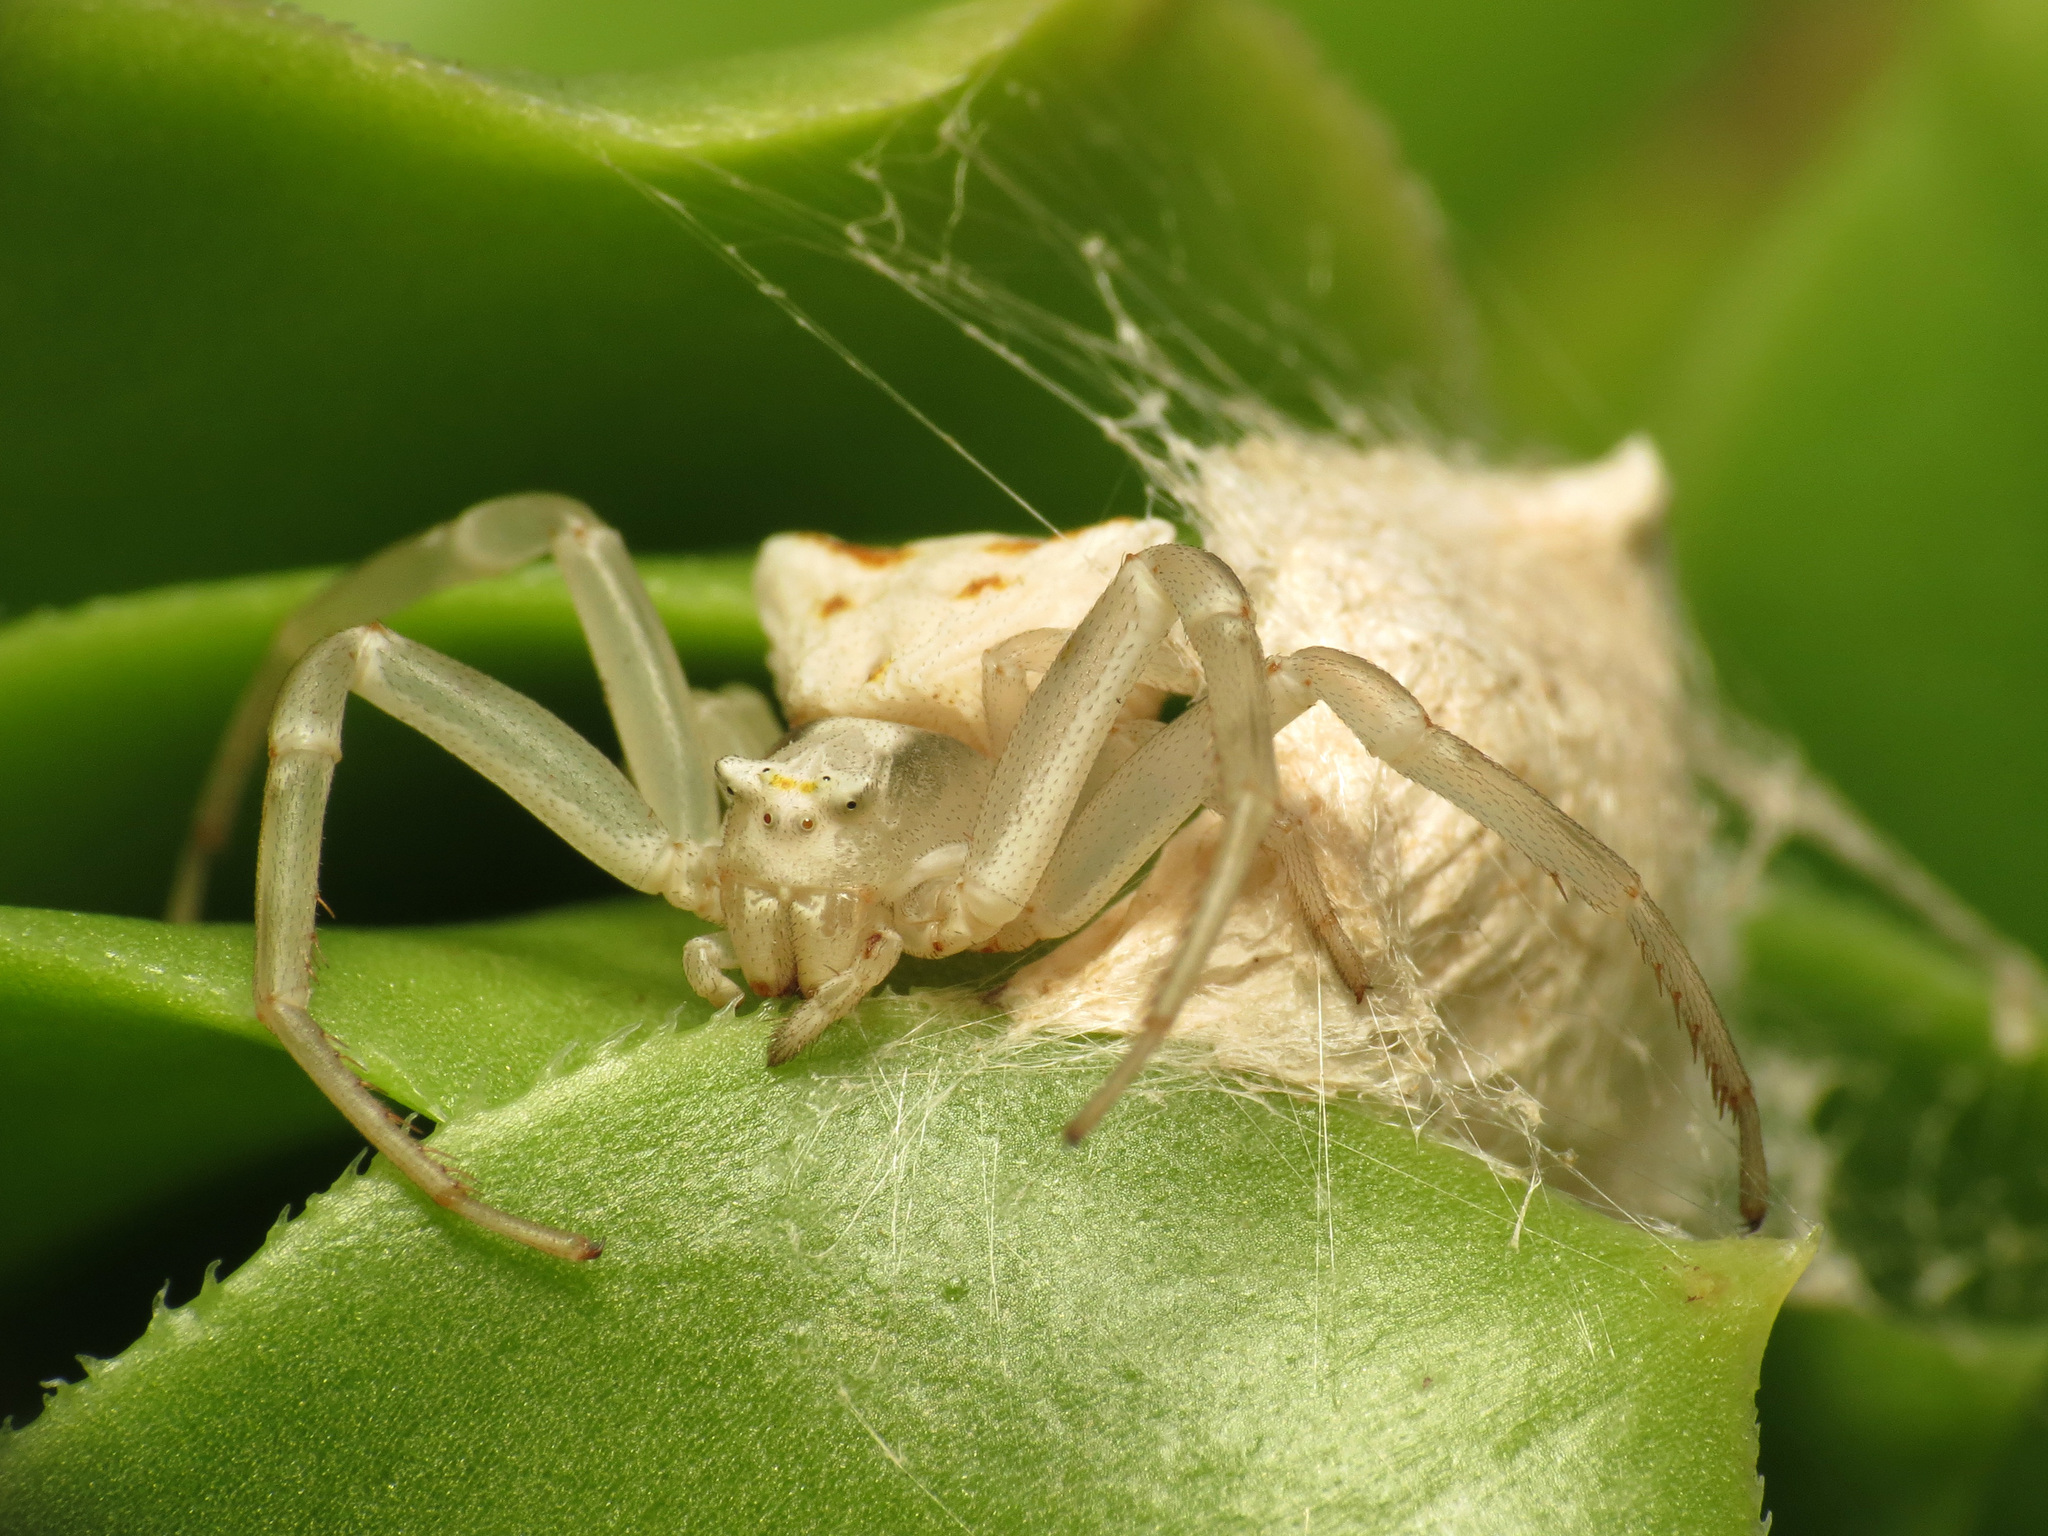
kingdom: Animalia
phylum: Arthropoda
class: Arachnida
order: Araneae
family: Thomisidae
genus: Thomisus
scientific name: Thomisus onustus
